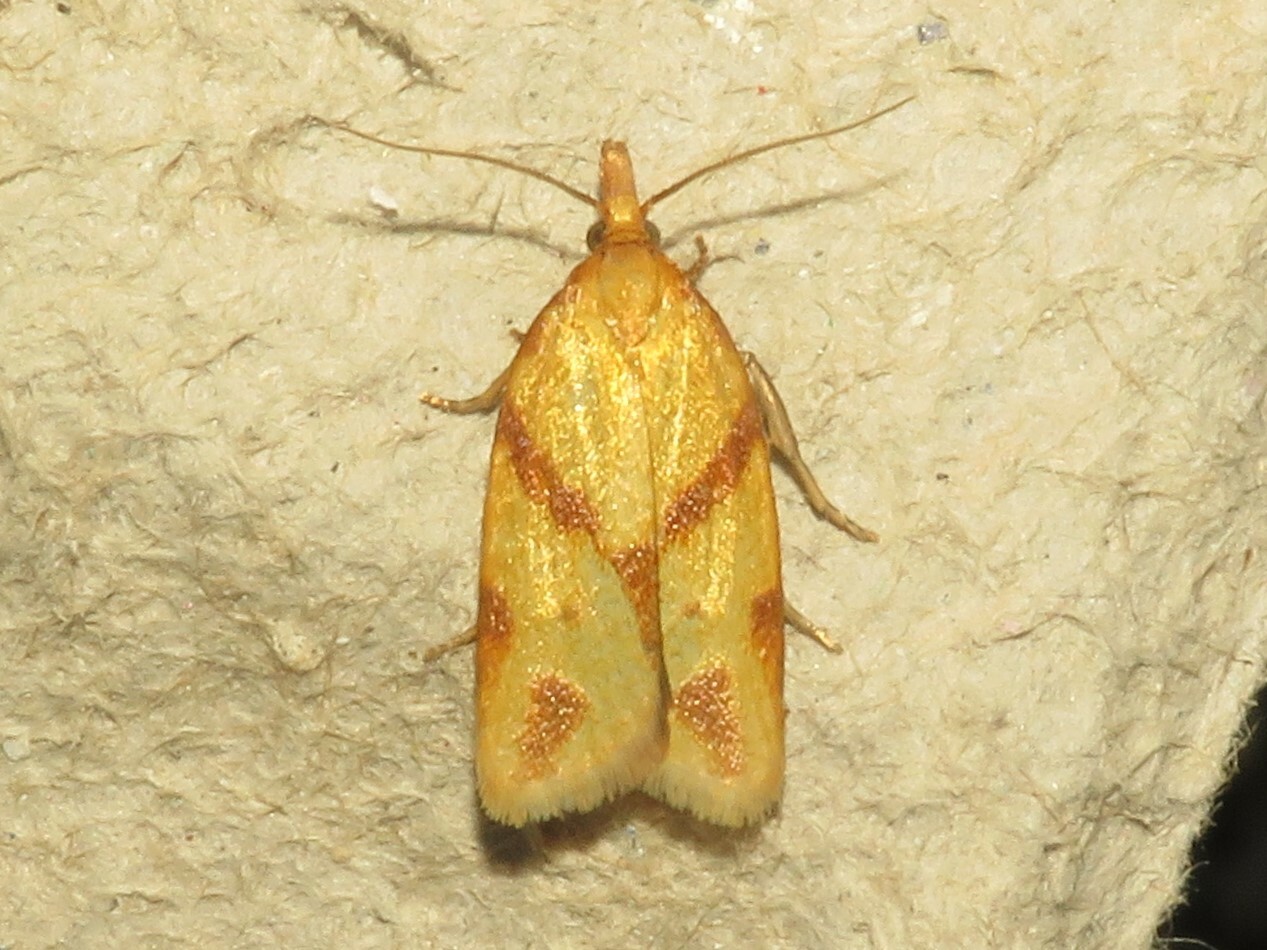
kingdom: Animalia
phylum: Arthropoda
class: Insecta
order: Lepidoptera
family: Tortricidae
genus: Sparganothis
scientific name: Sparganothis unifasciana
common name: One-lined sparganothis moth
